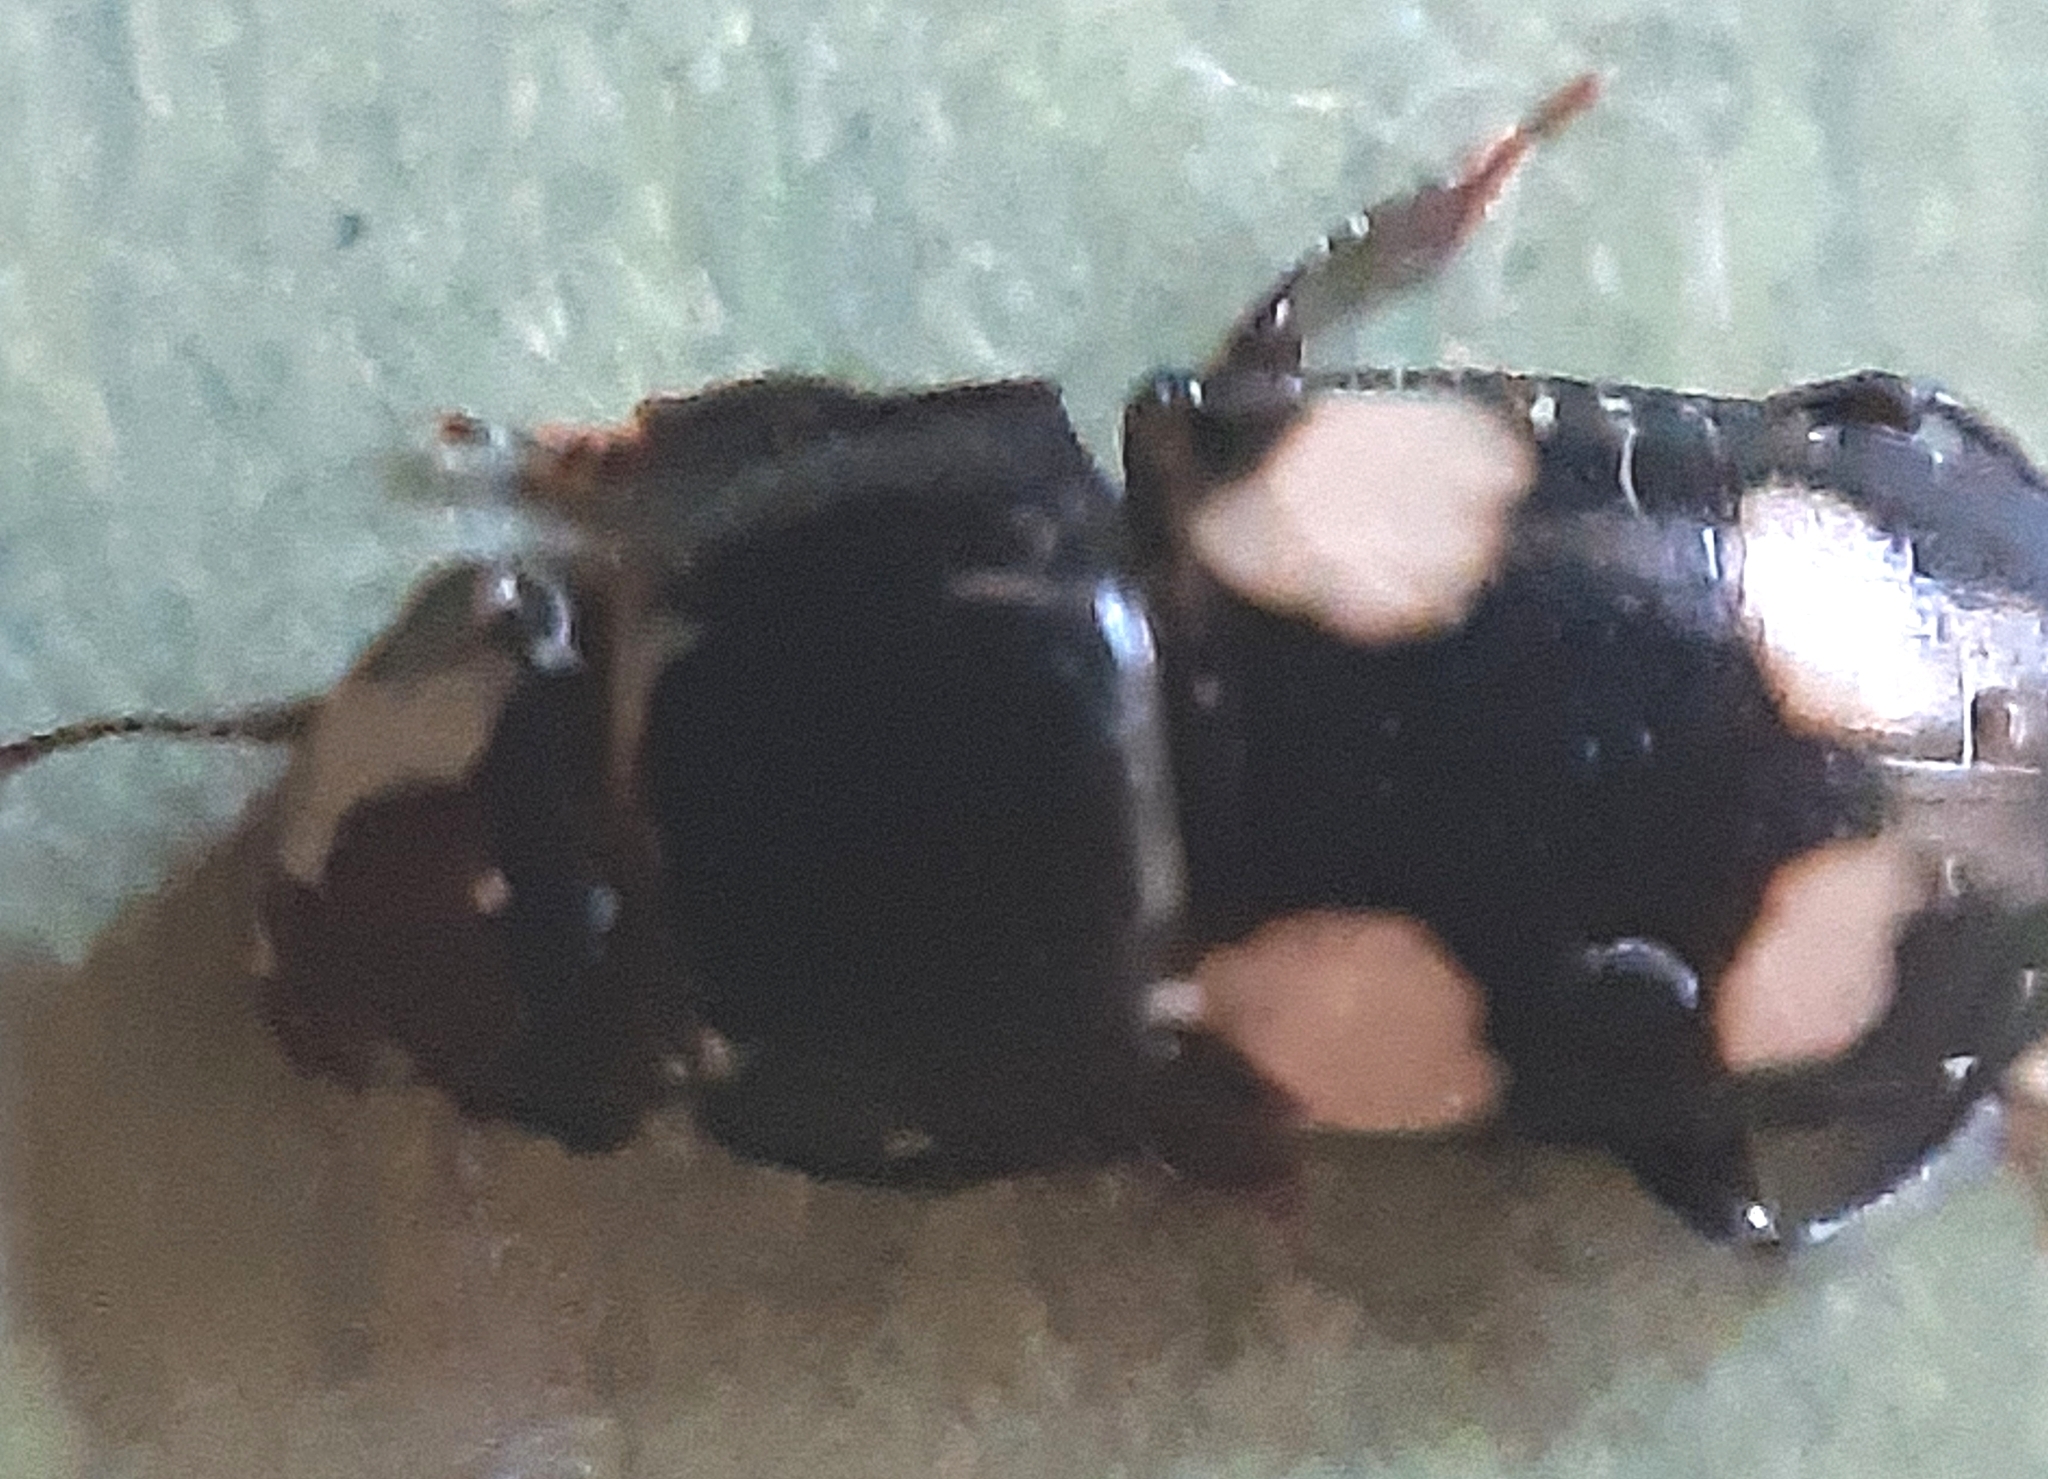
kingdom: Animalia
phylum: Arthropoda
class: Insecta
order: Coleoptera
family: Nitidulidae
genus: Glischrochilus
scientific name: Glischrochilus quadrisignatus
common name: Picnic beetle
